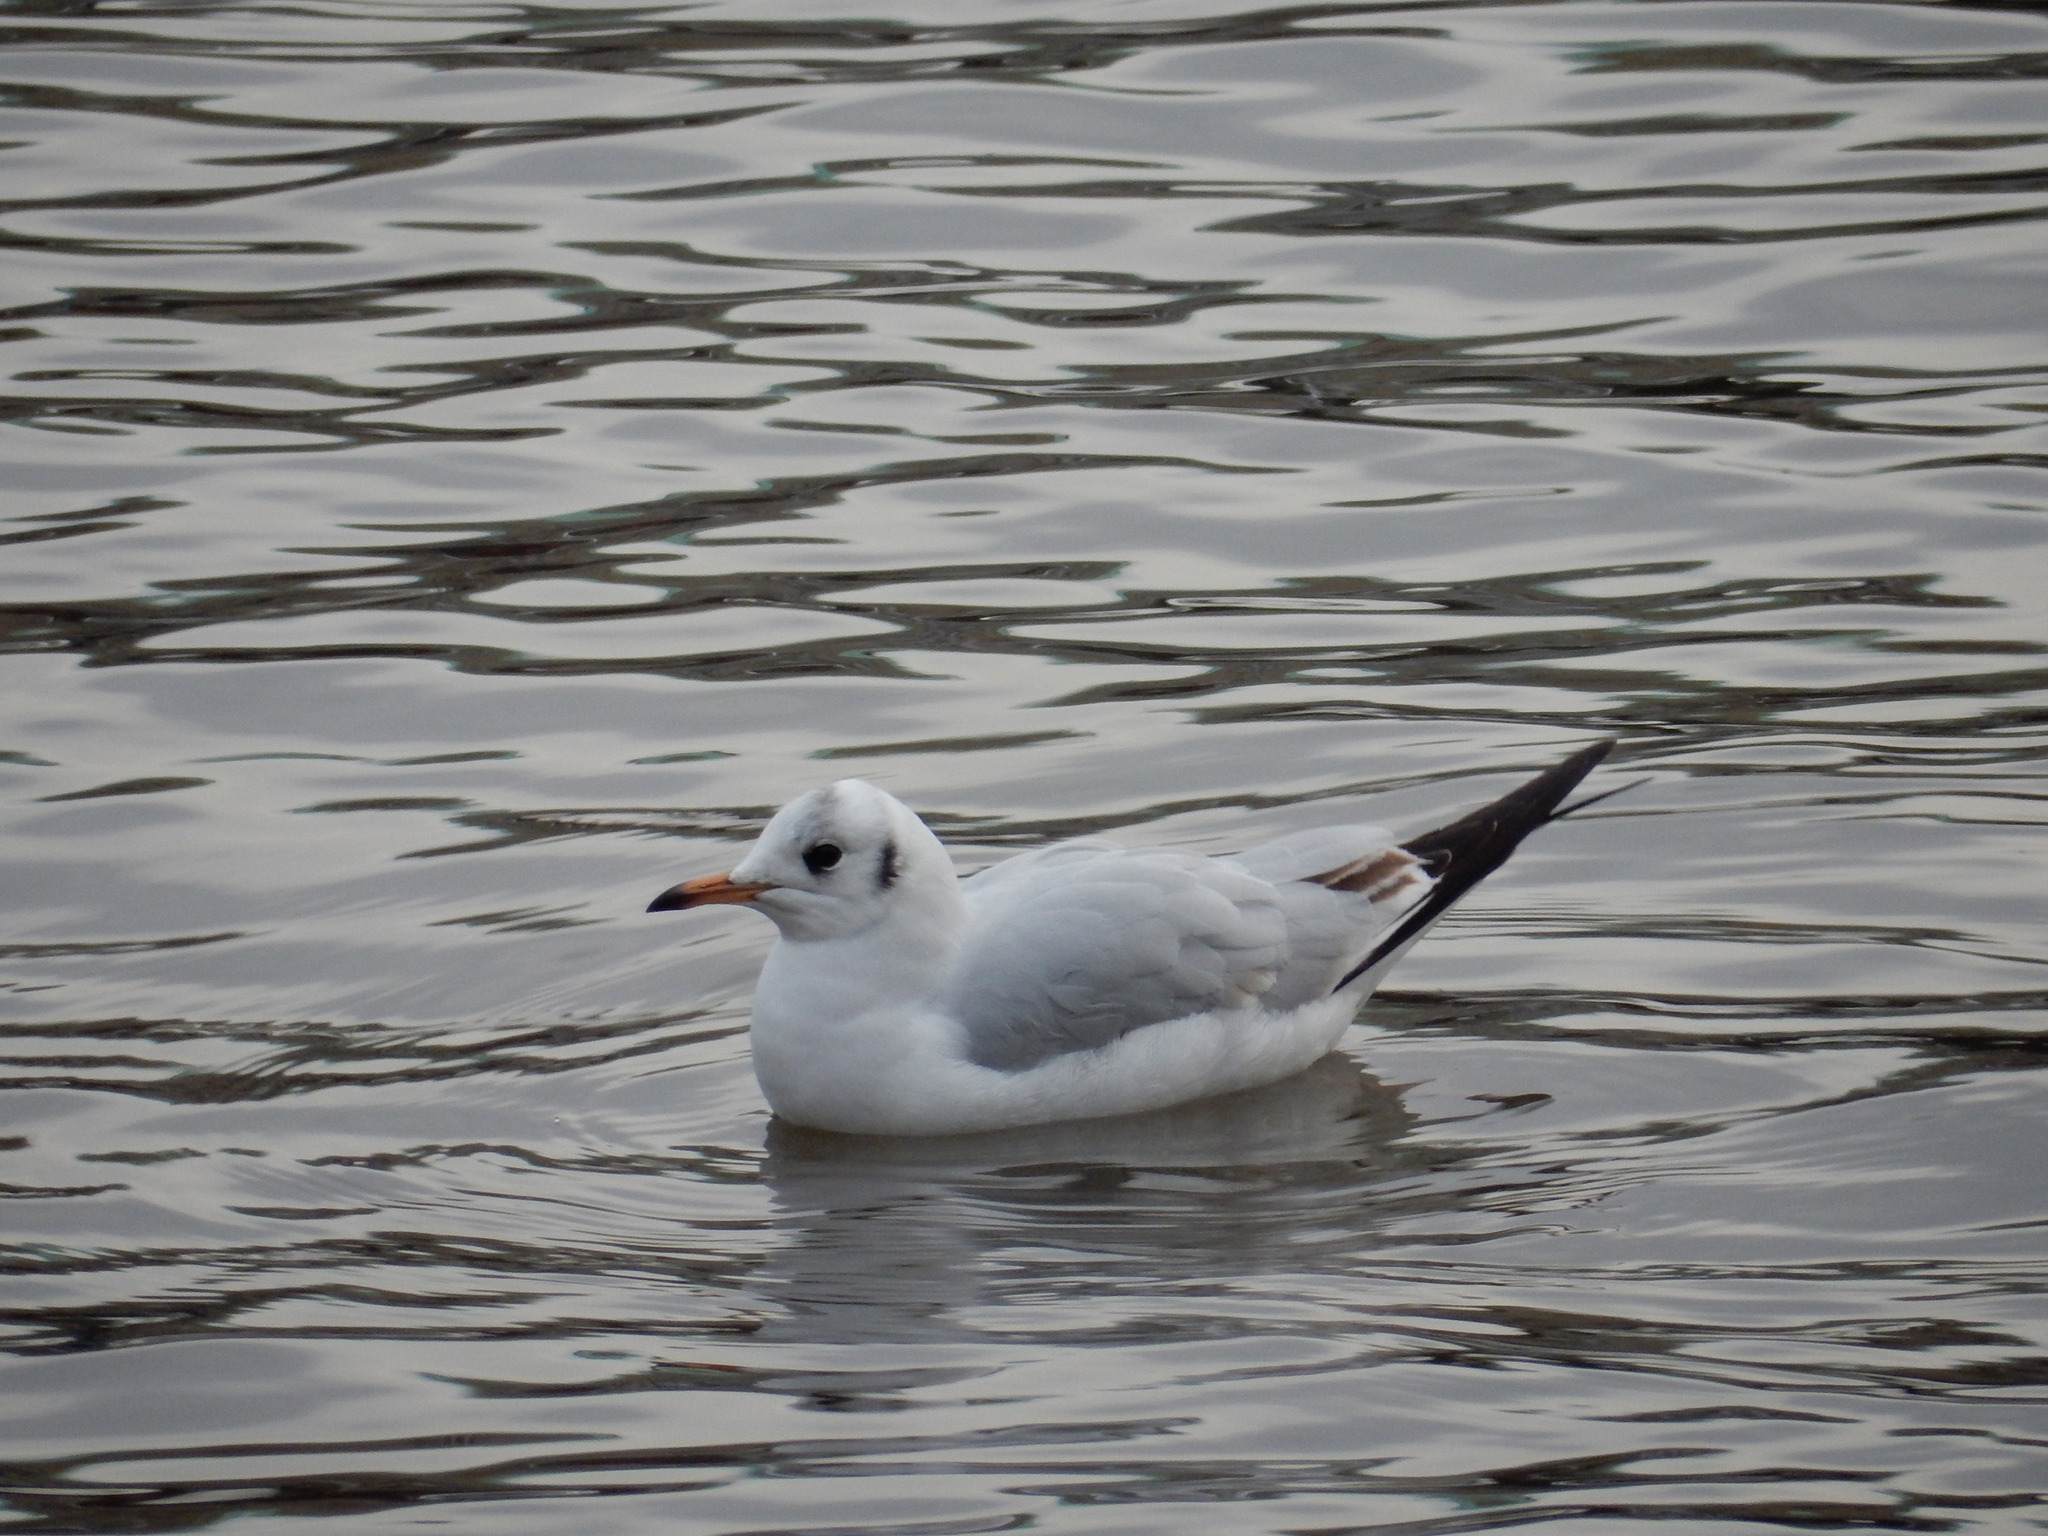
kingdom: Animalia
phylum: Chordata
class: Aves
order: Charadriiformes
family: Laridae
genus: Chroicocephalus
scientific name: Chroicocephalus ridibundus
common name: Black-headed gull
